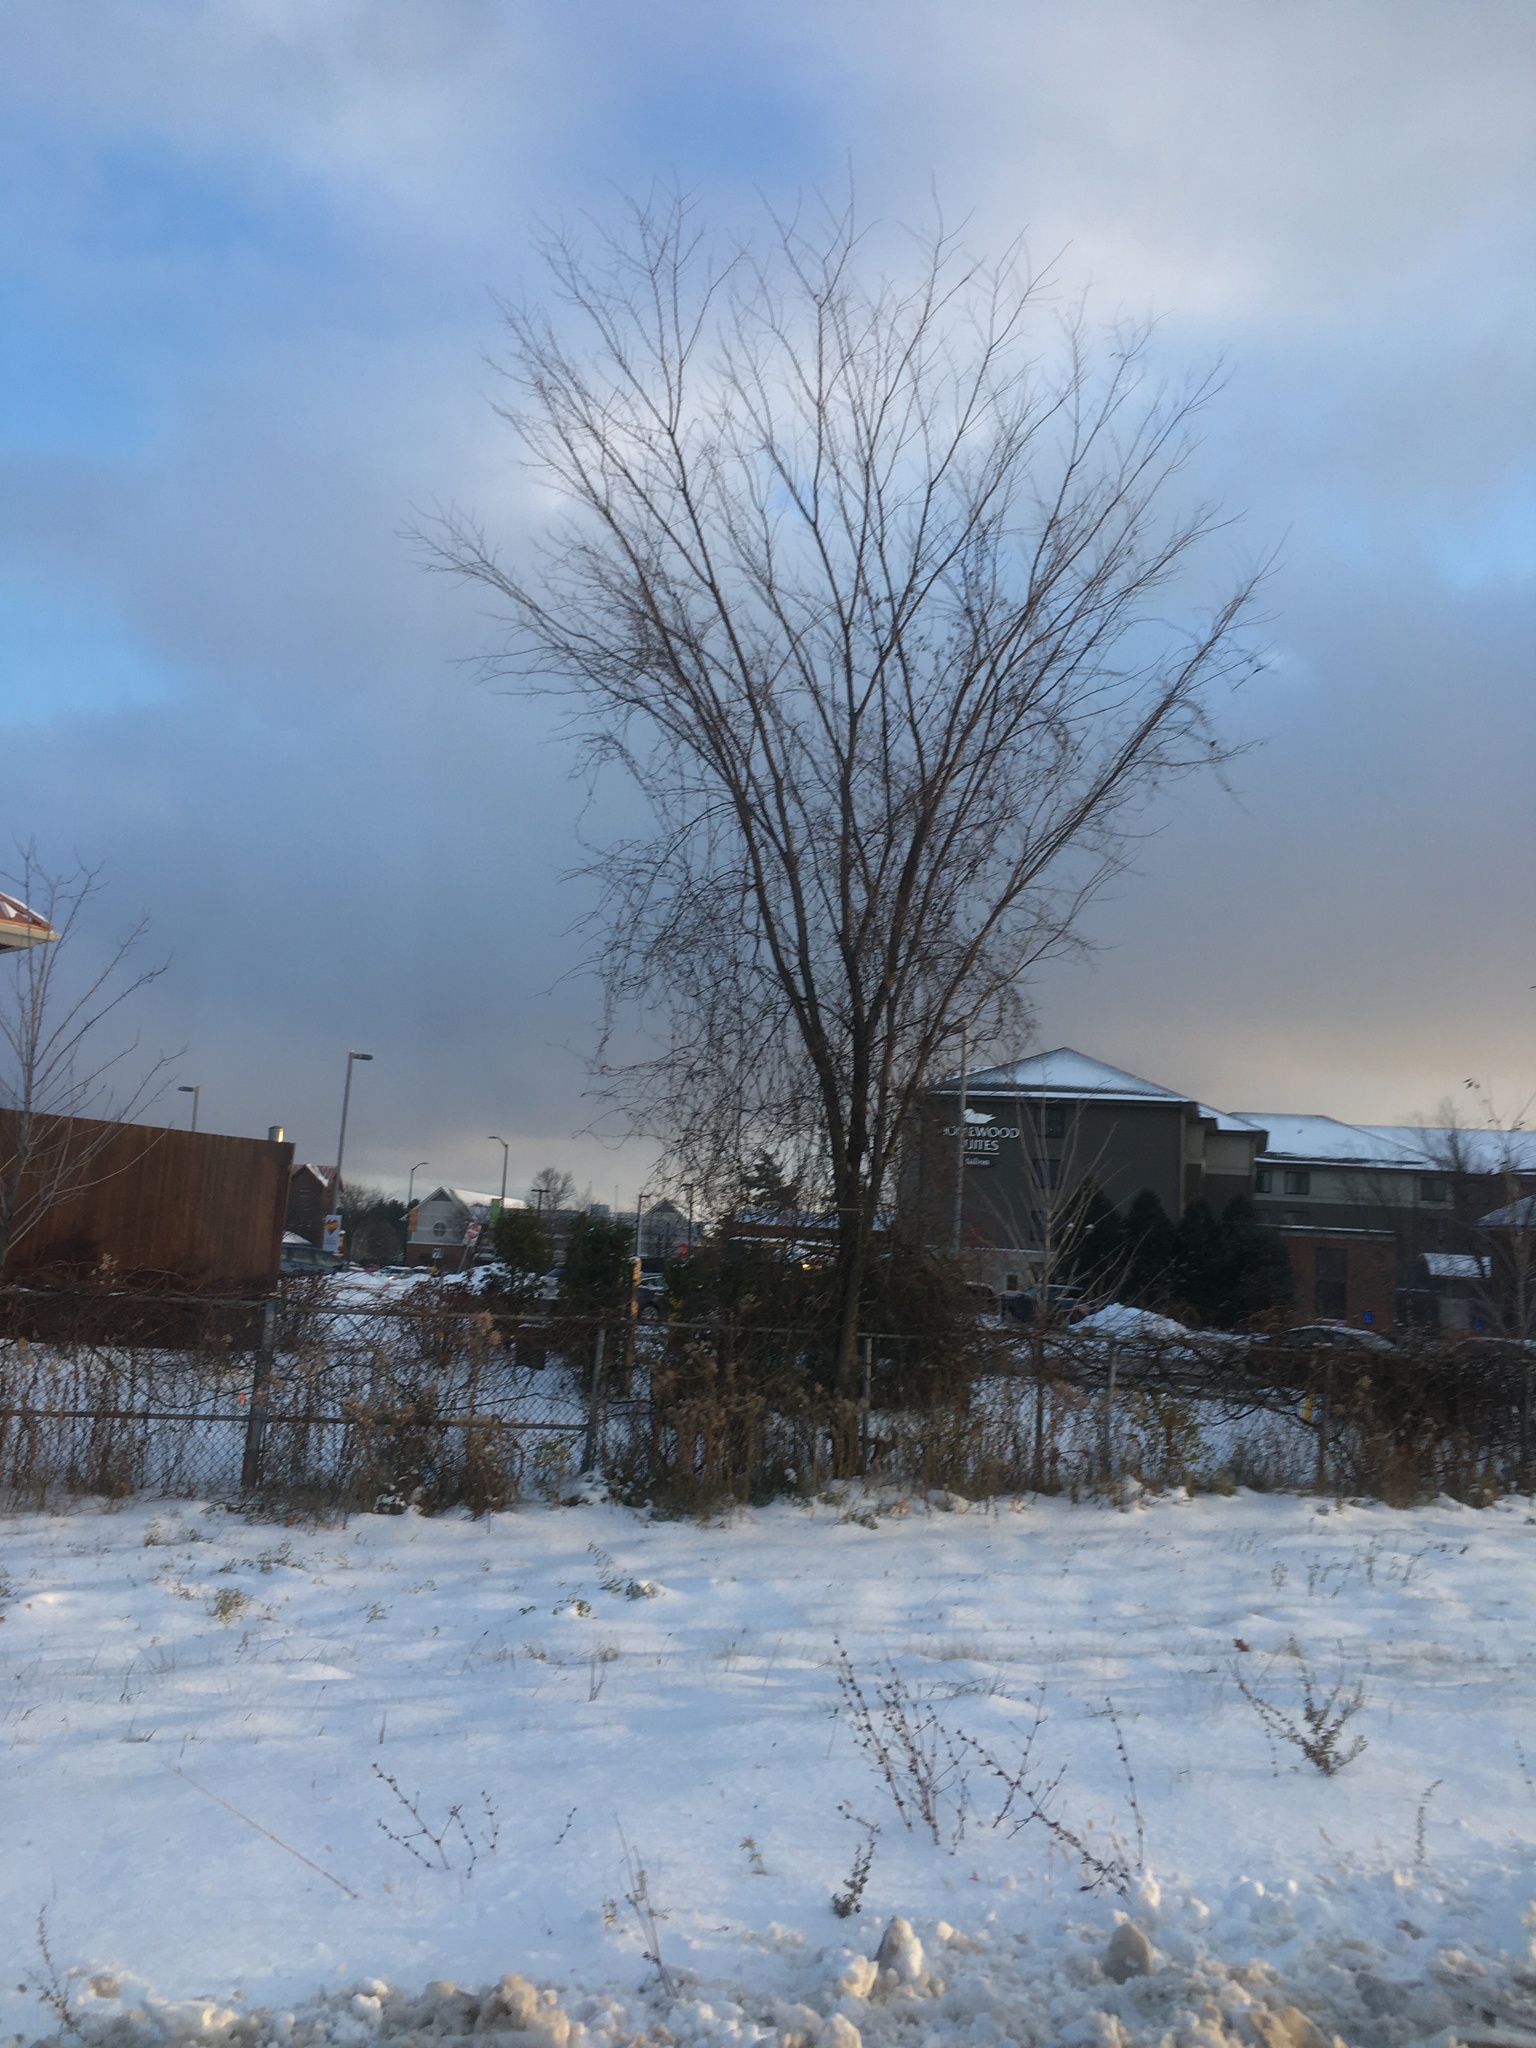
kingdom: Plantae
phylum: Tracheophyta
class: Magnoliopsida
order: Asterales
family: Asteraceae
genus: Cichorium
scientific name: Cichorium intybus
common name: Chicory
